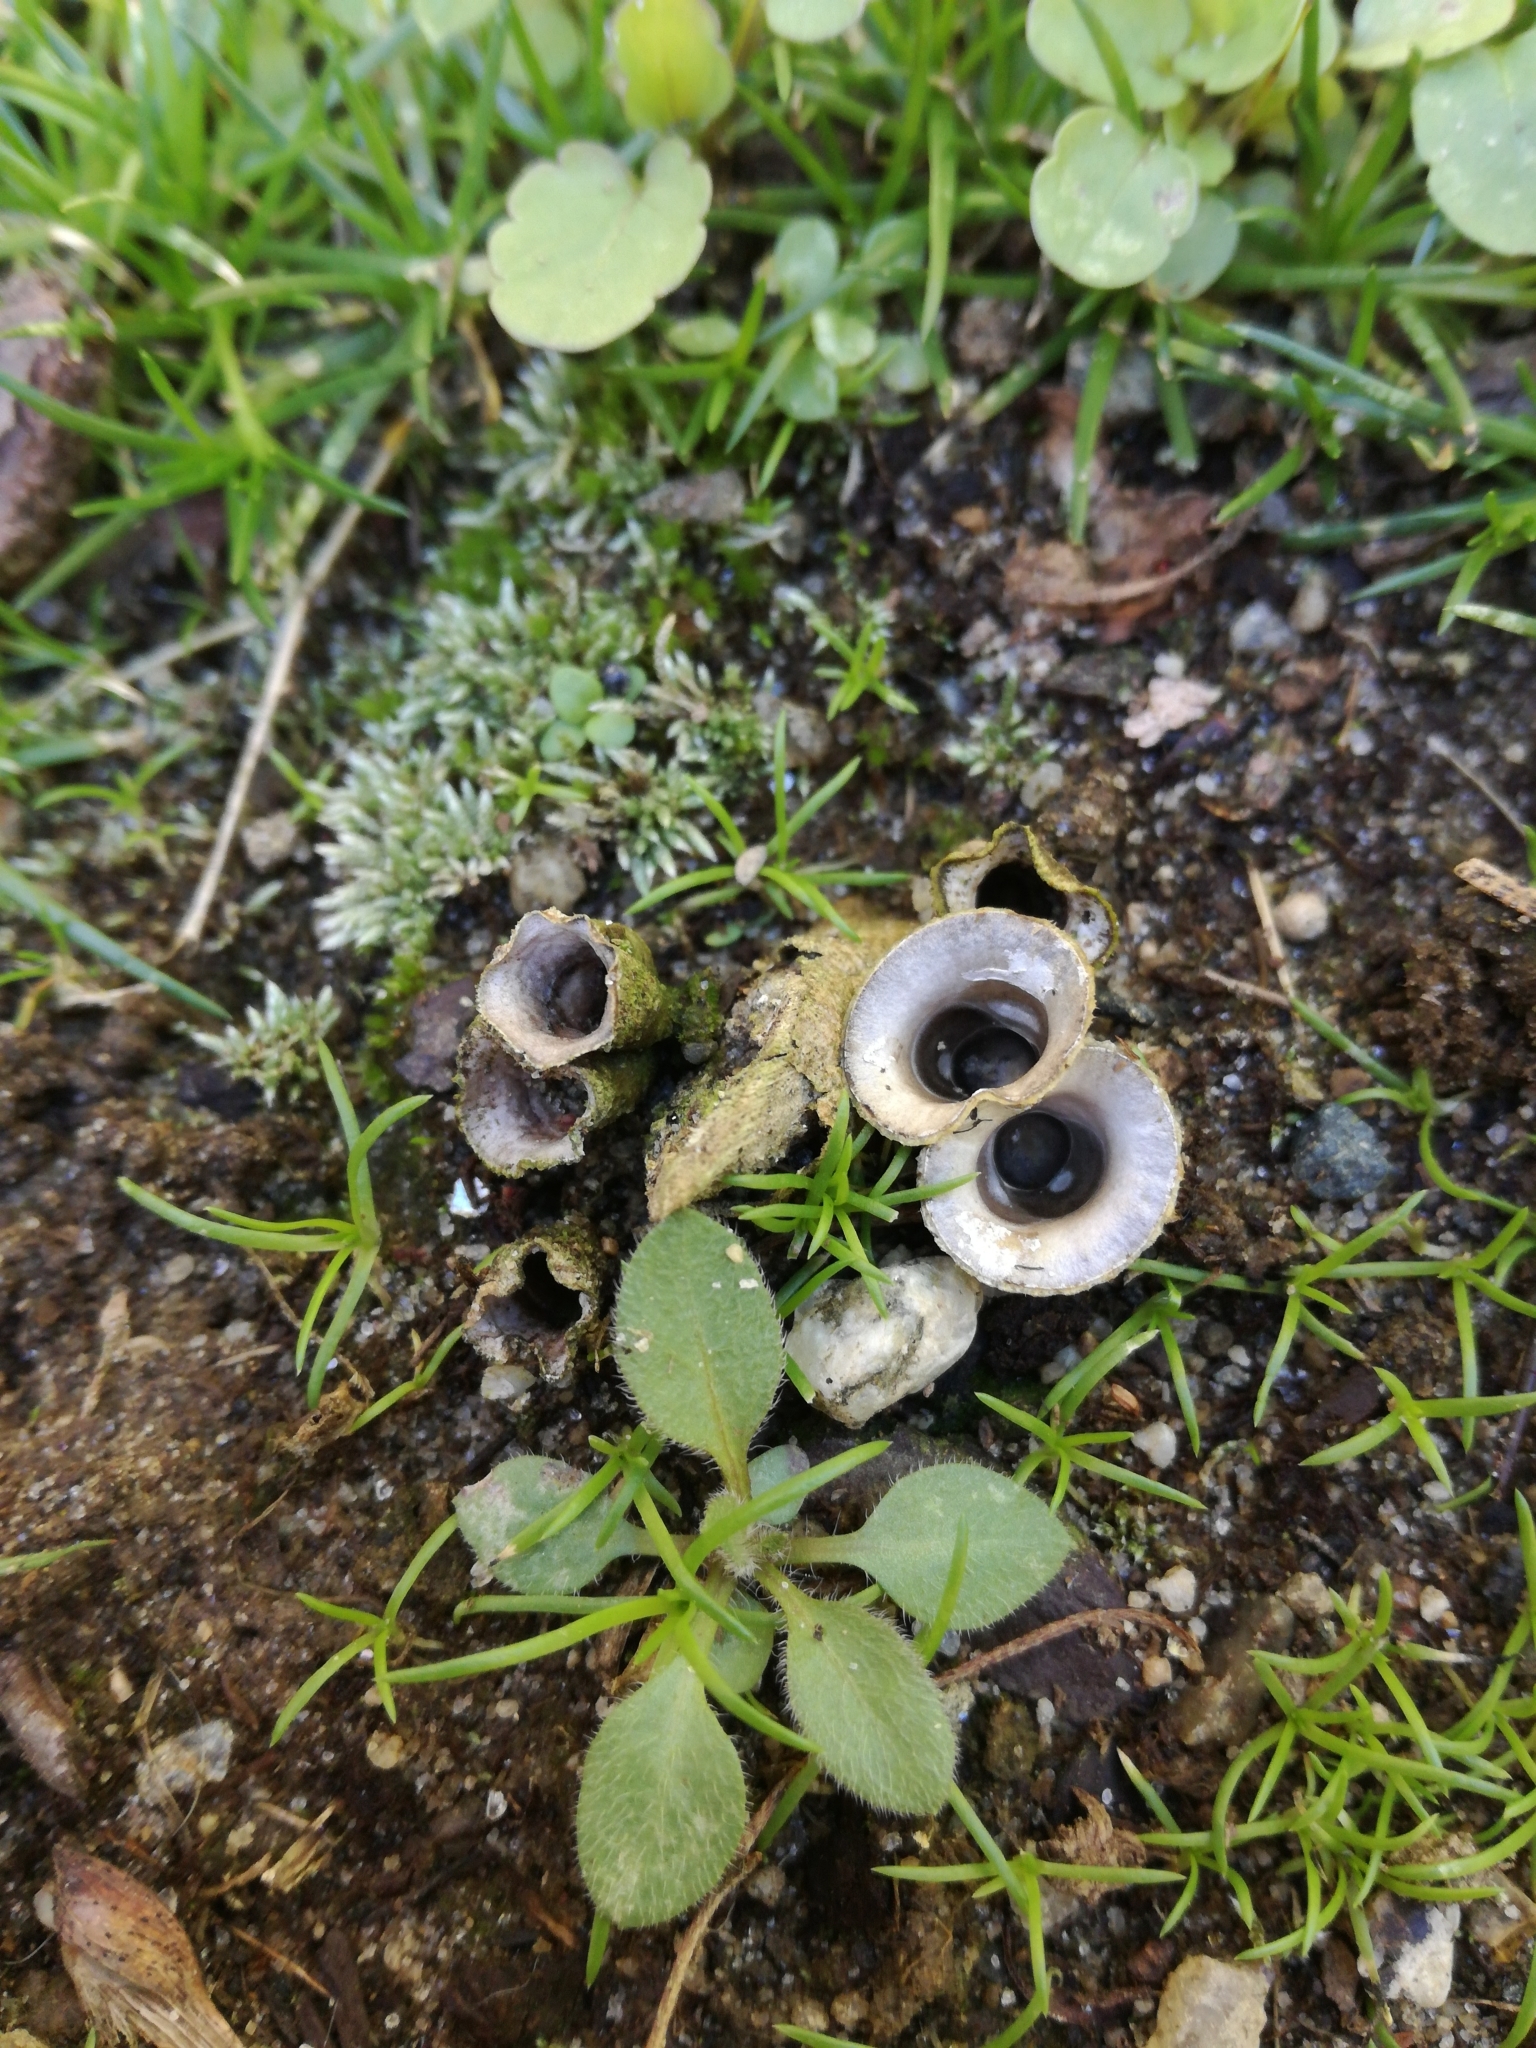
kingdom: Fungi
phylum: Basidiomycota
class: Agaricomycetes
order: Agaricales
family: Agaricaceae
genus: Cyathus
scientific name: Cyathus olla
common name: Field bird's nest
